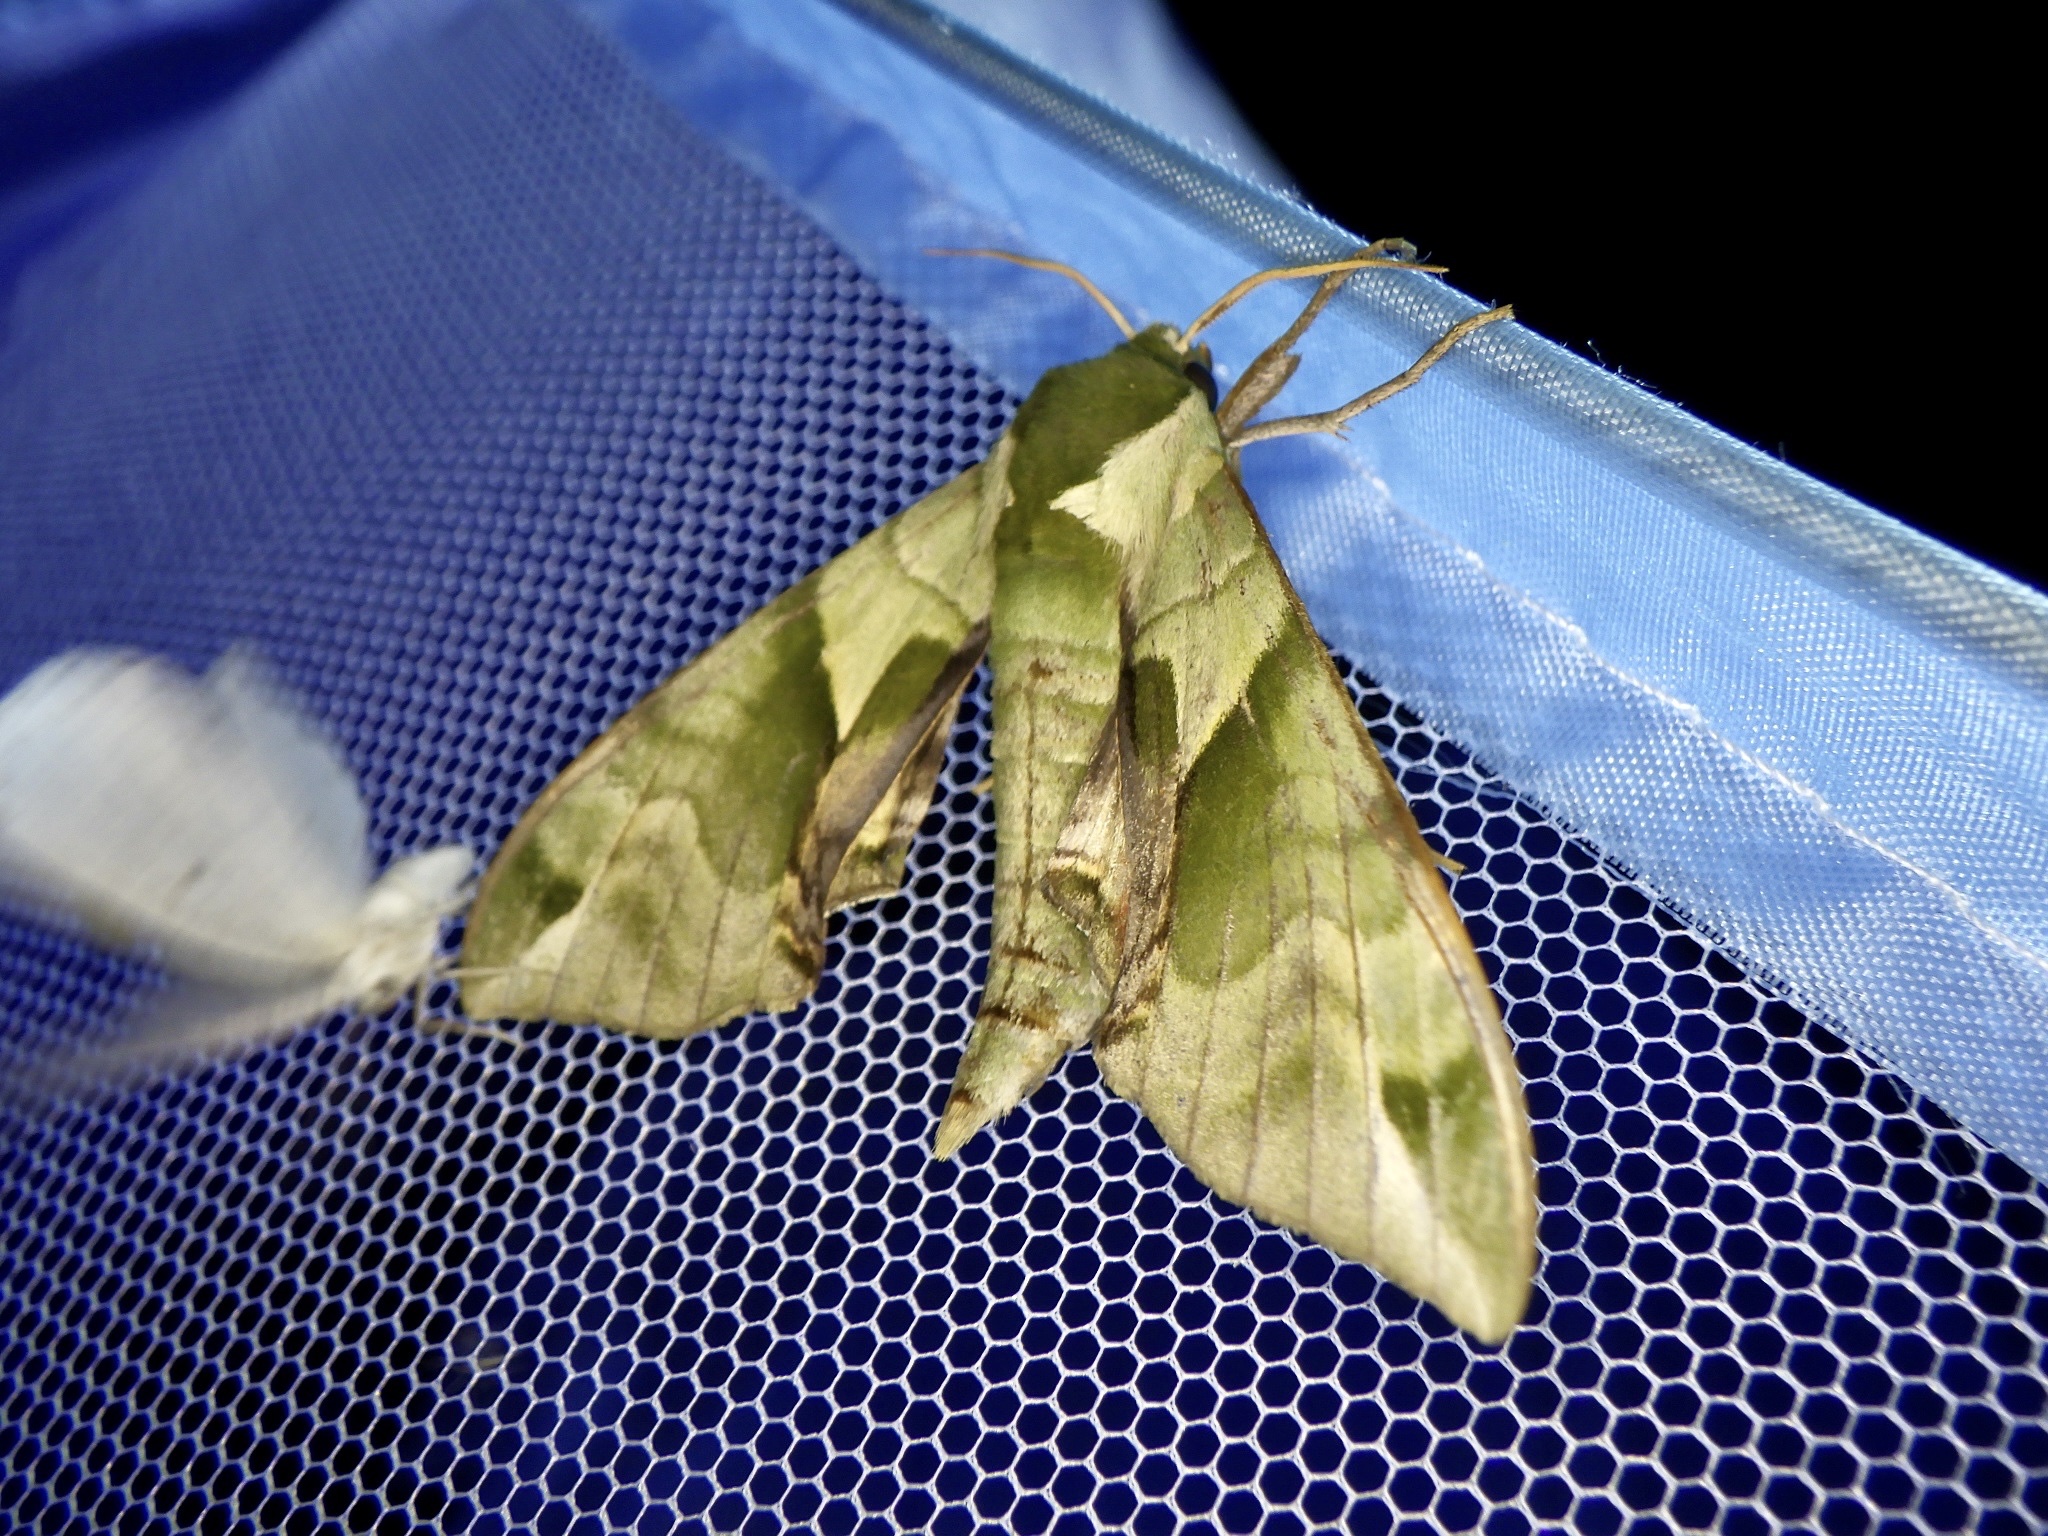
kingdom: Animalia
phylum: Arthropoda
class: Insecta
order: Lepidoptera
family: Sphingidae
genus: Callambulyx
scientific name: Callambulyx tatarinovii
